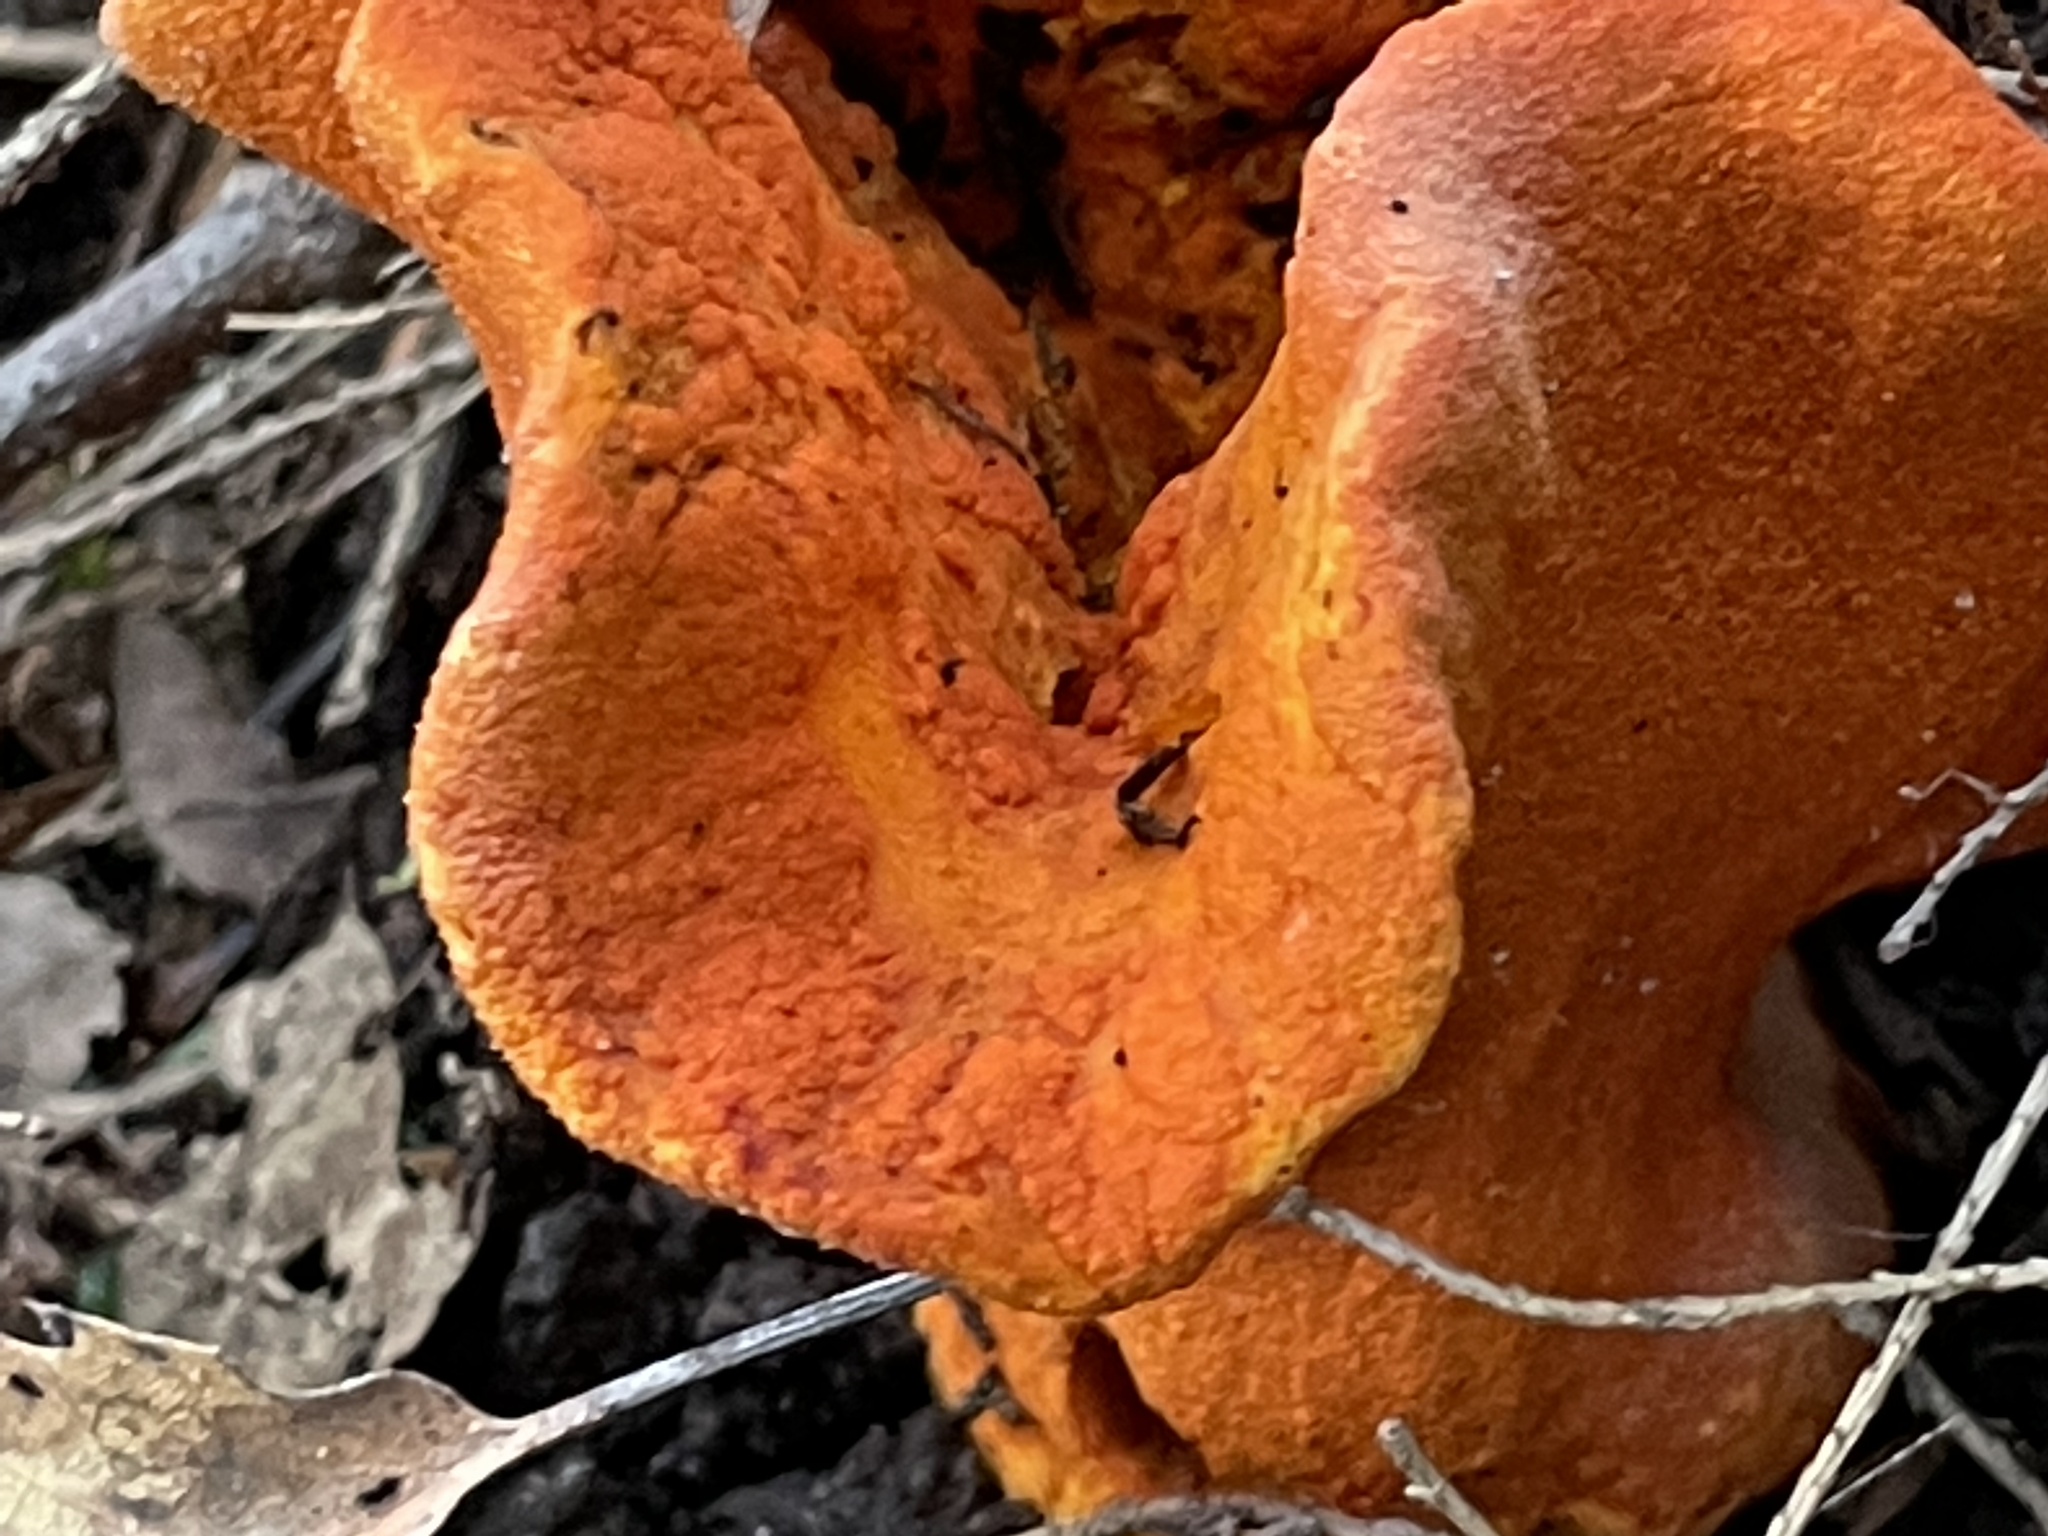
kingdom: Fungi
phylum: Ascomycota
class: Sordariomycetes
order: Hypocreales
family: Hypocreaceae
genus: Hypomyces
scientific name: Hypomyces lactifluorum
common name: Lobster mushroom
